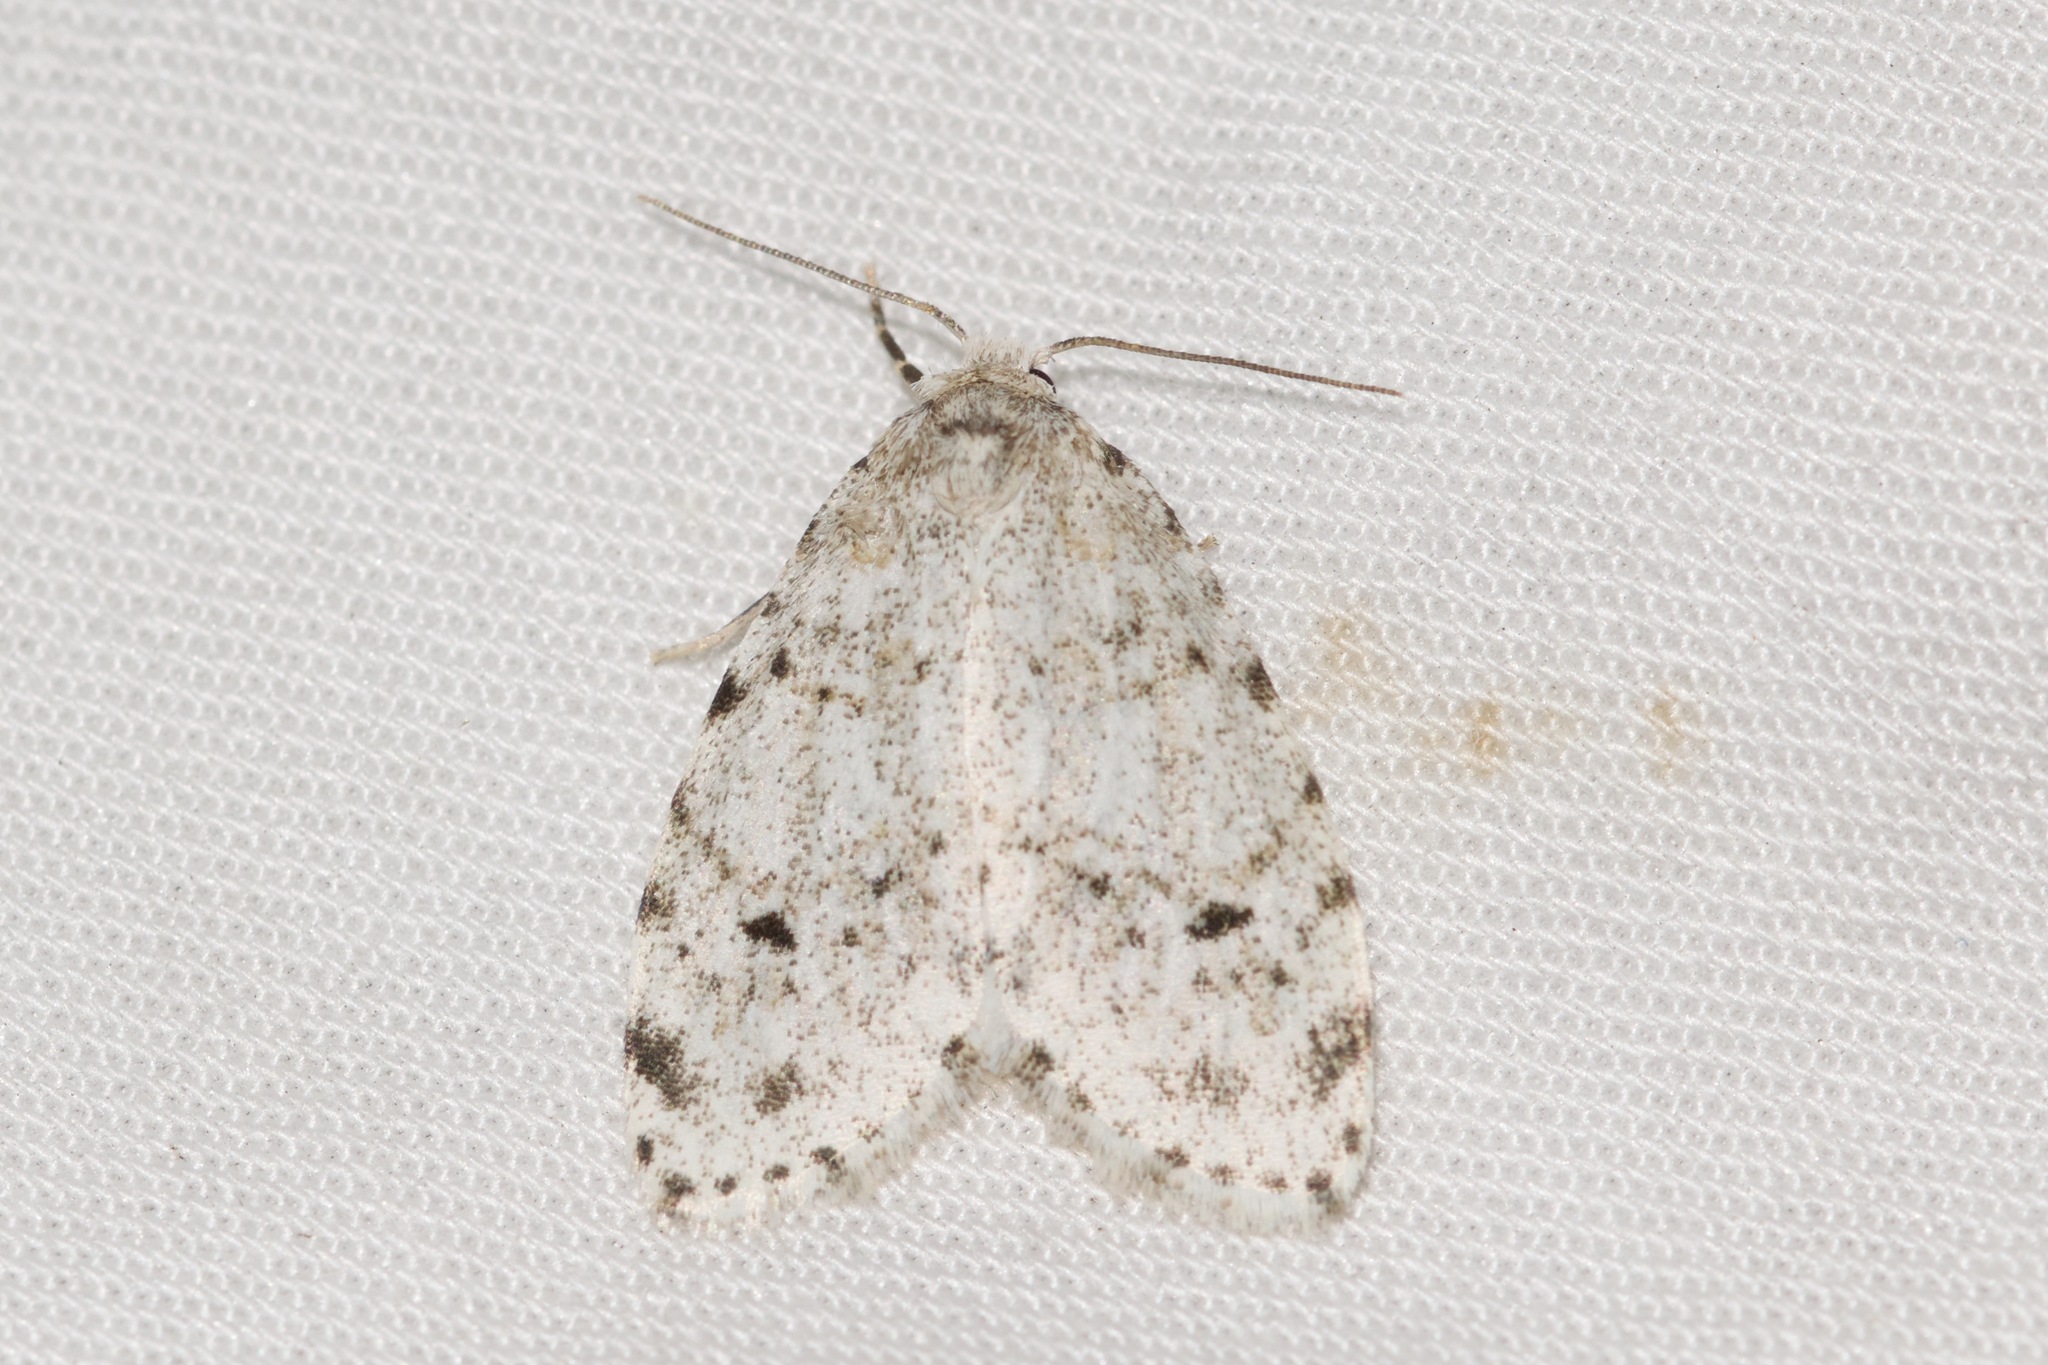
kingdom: Animalia
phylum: Arthropoda
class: Insecta
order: Lepidoptera
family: Erebidae
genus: Clemensia
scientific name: Clemensia albata
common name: Little white lichen moth
